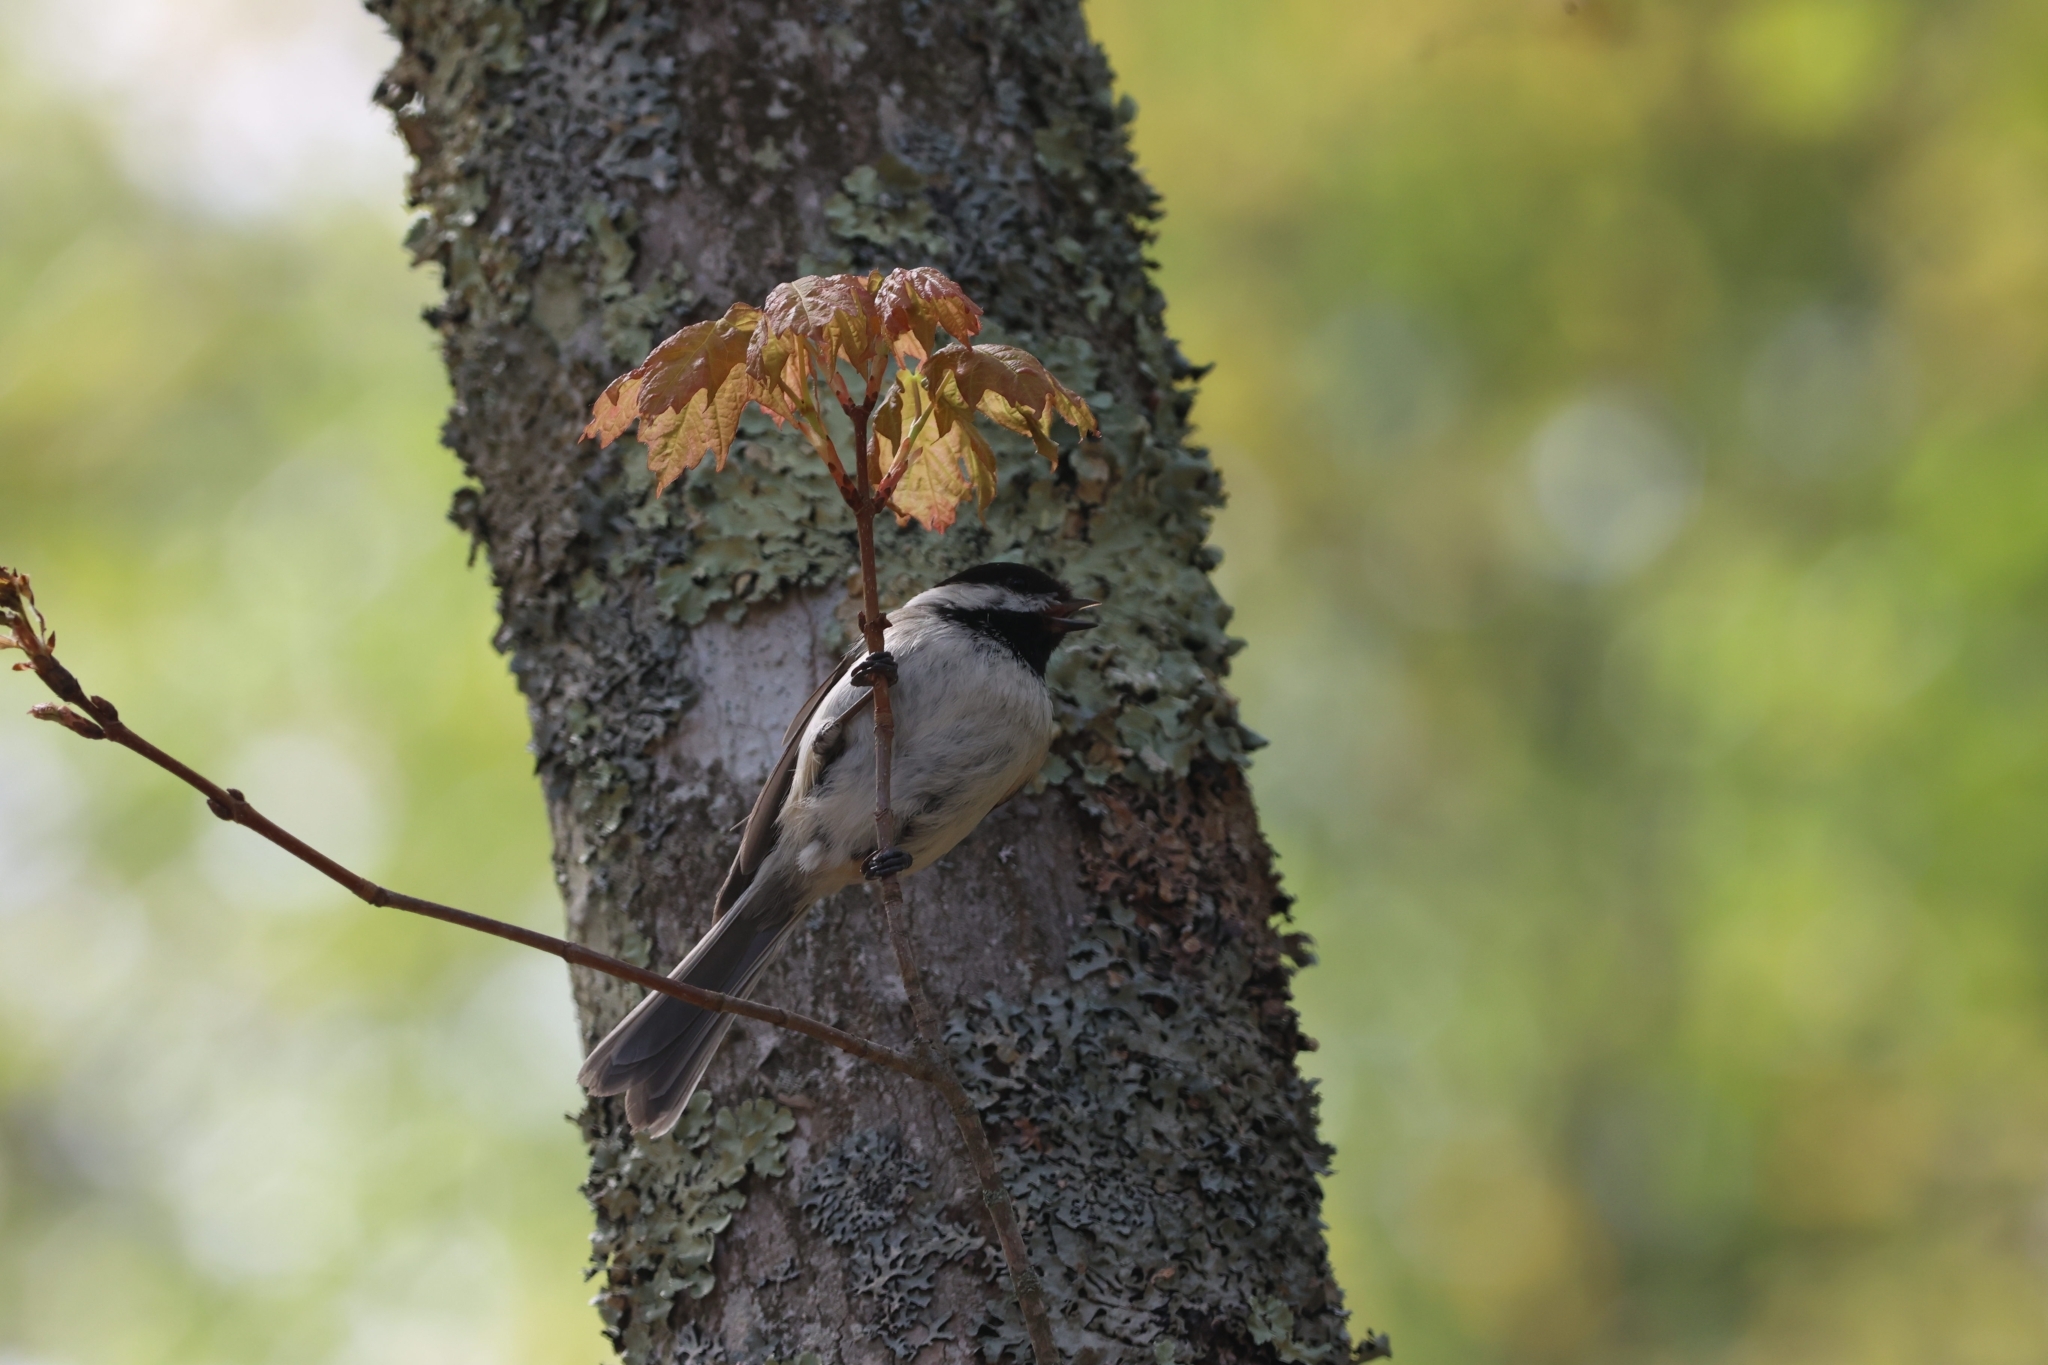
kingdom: Animalia
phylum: Chordata
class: Aves
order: Passeriformes
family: Paridae
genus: Poecile
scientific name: Poecile atricapillus
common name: Black-capped chickadee
